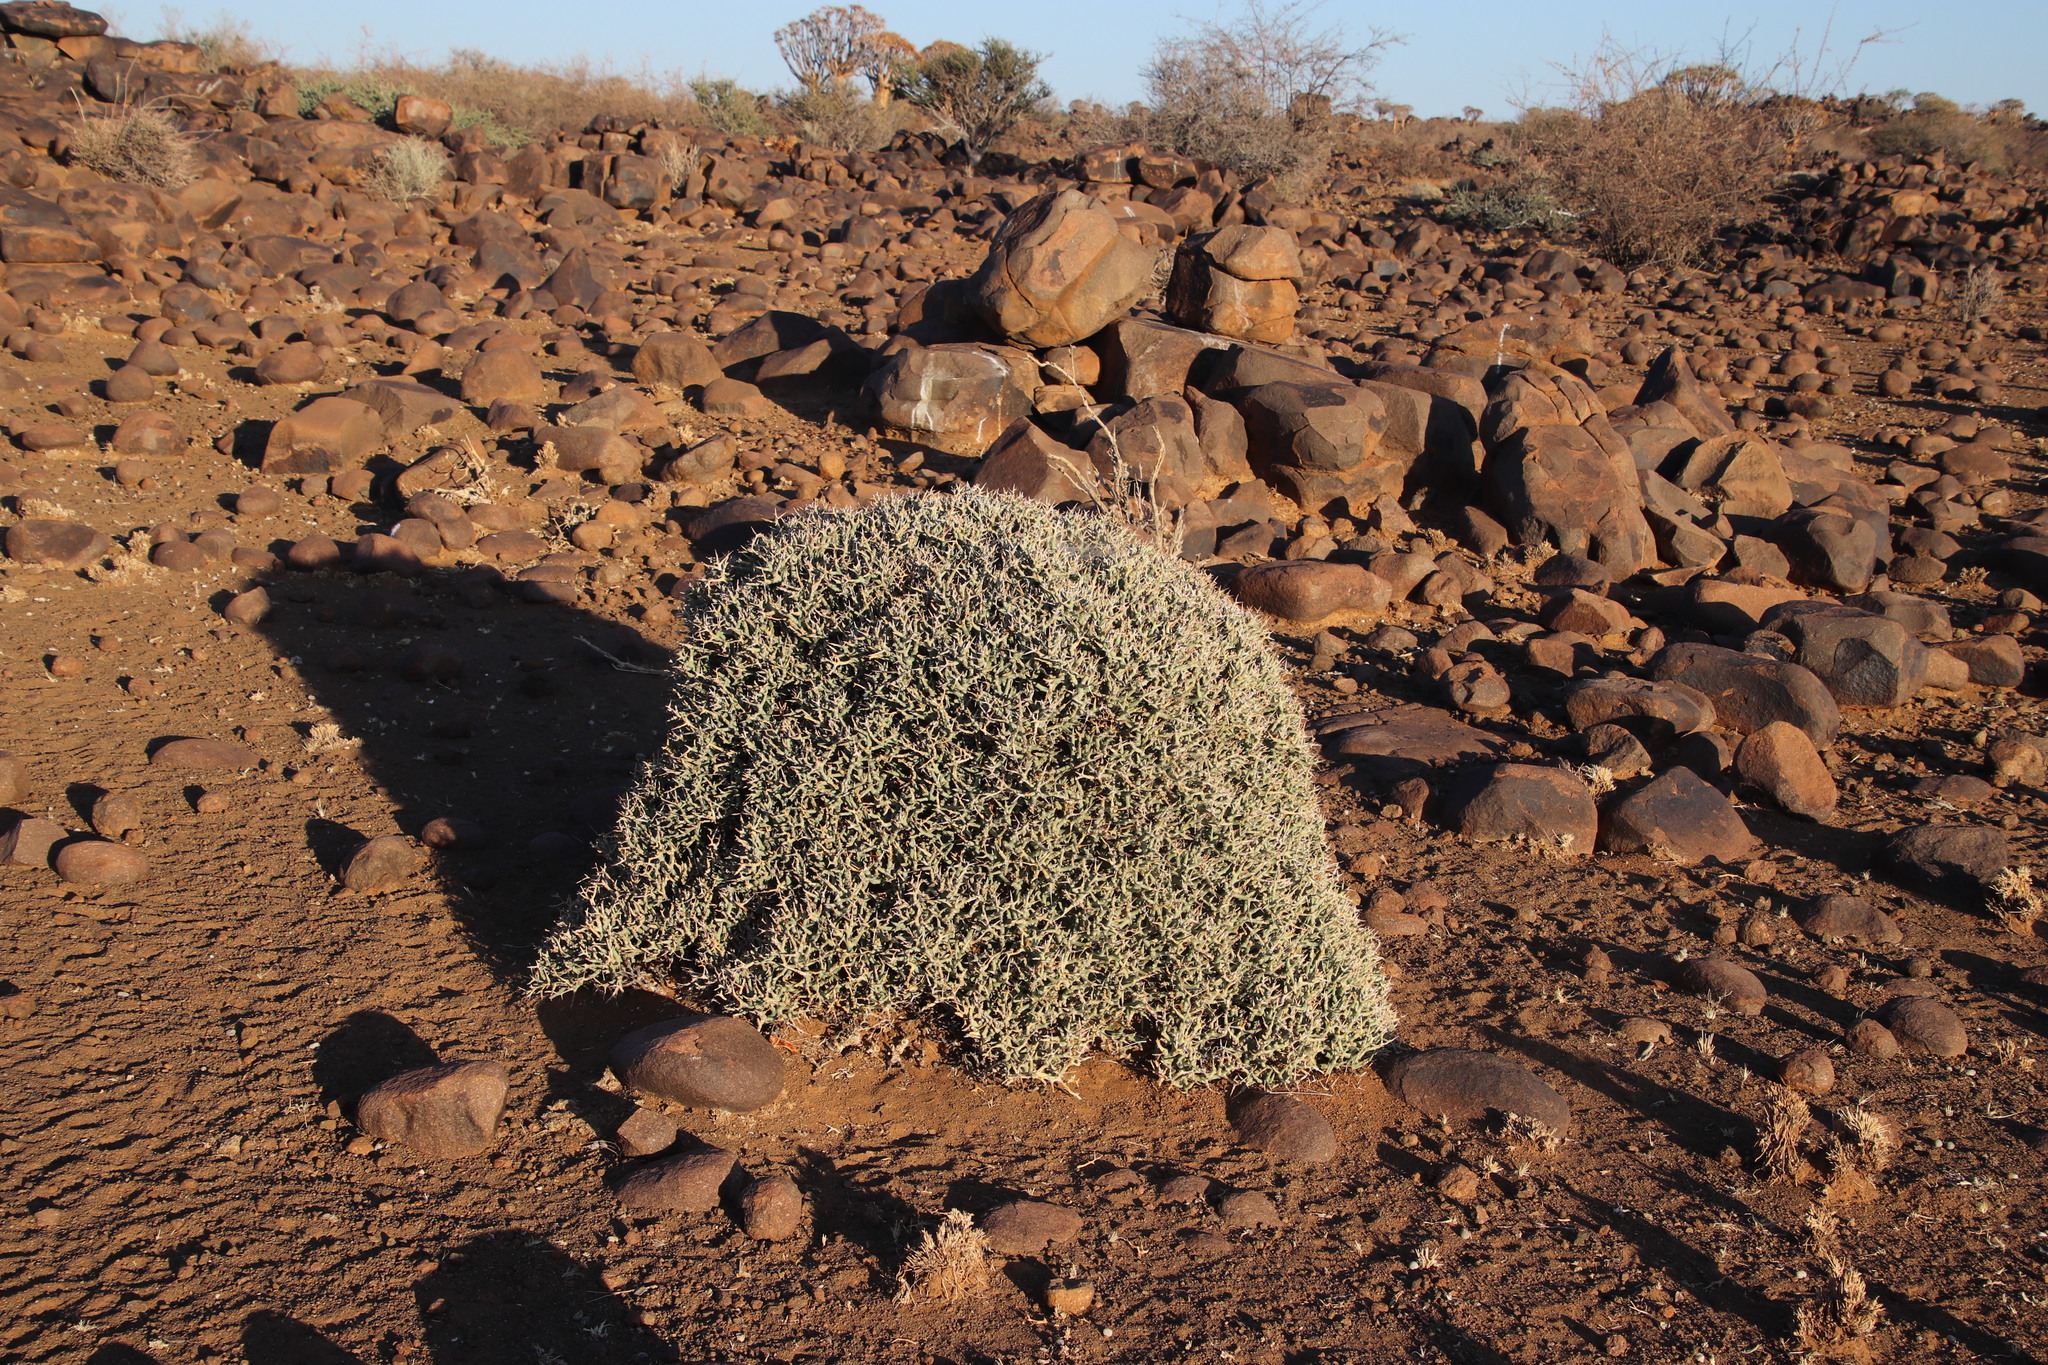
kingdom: Plantae
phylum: Tracheophyta
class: Magnoliopsida
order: Malpighiales
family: Euphorbiaceae
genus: Euphorbia
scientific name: Euphorbia lignosa
